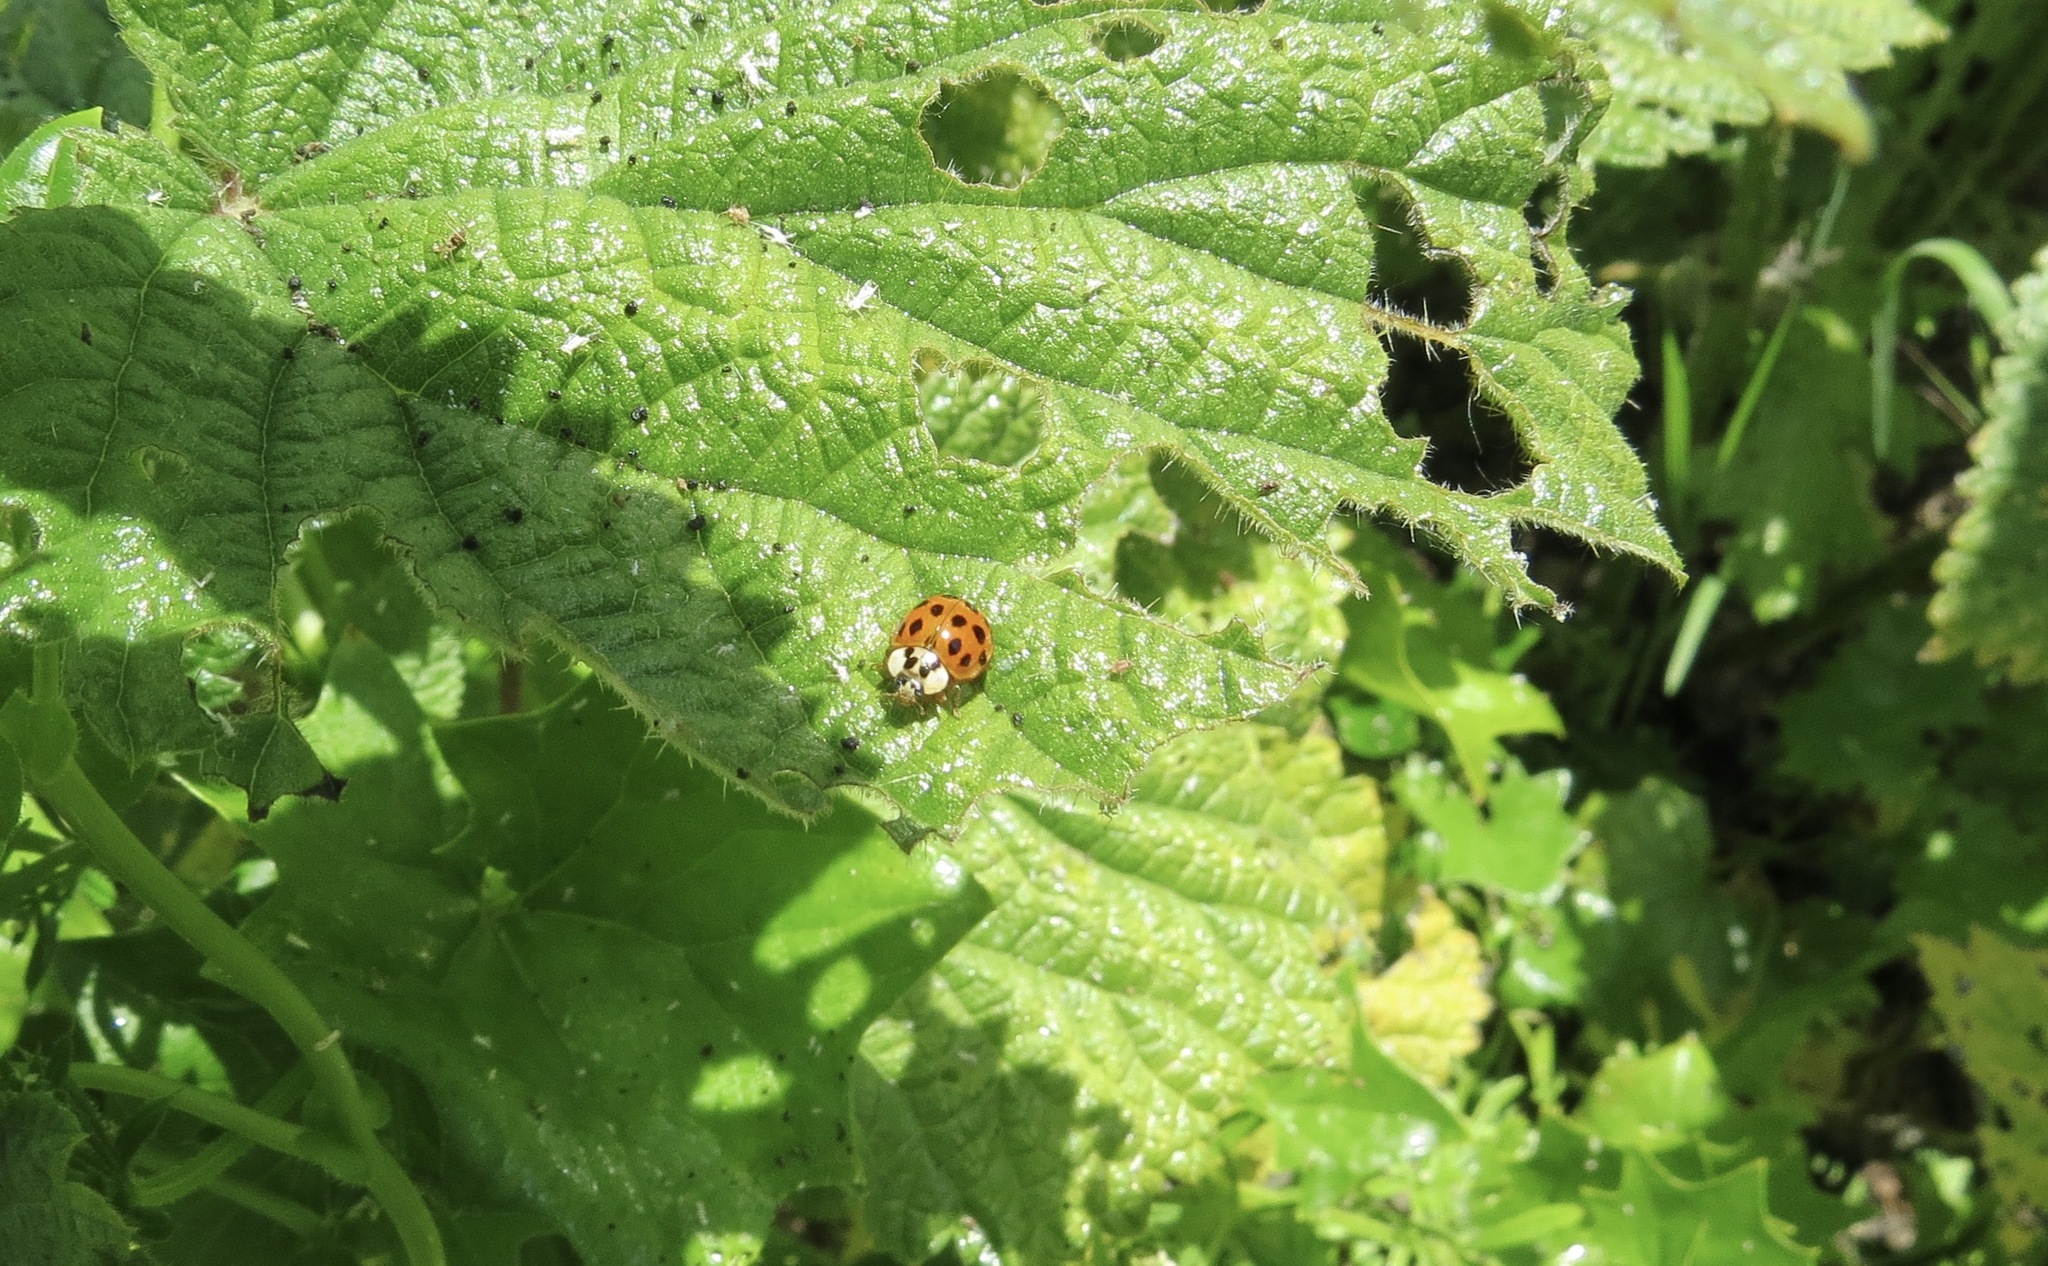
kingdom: Animalia
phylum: Arthropoda
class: Insecta
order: Coleoptera
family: Coccinellidae
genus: Harmonia
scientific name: Harmonia axyridis
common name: Harlequin ladybird
